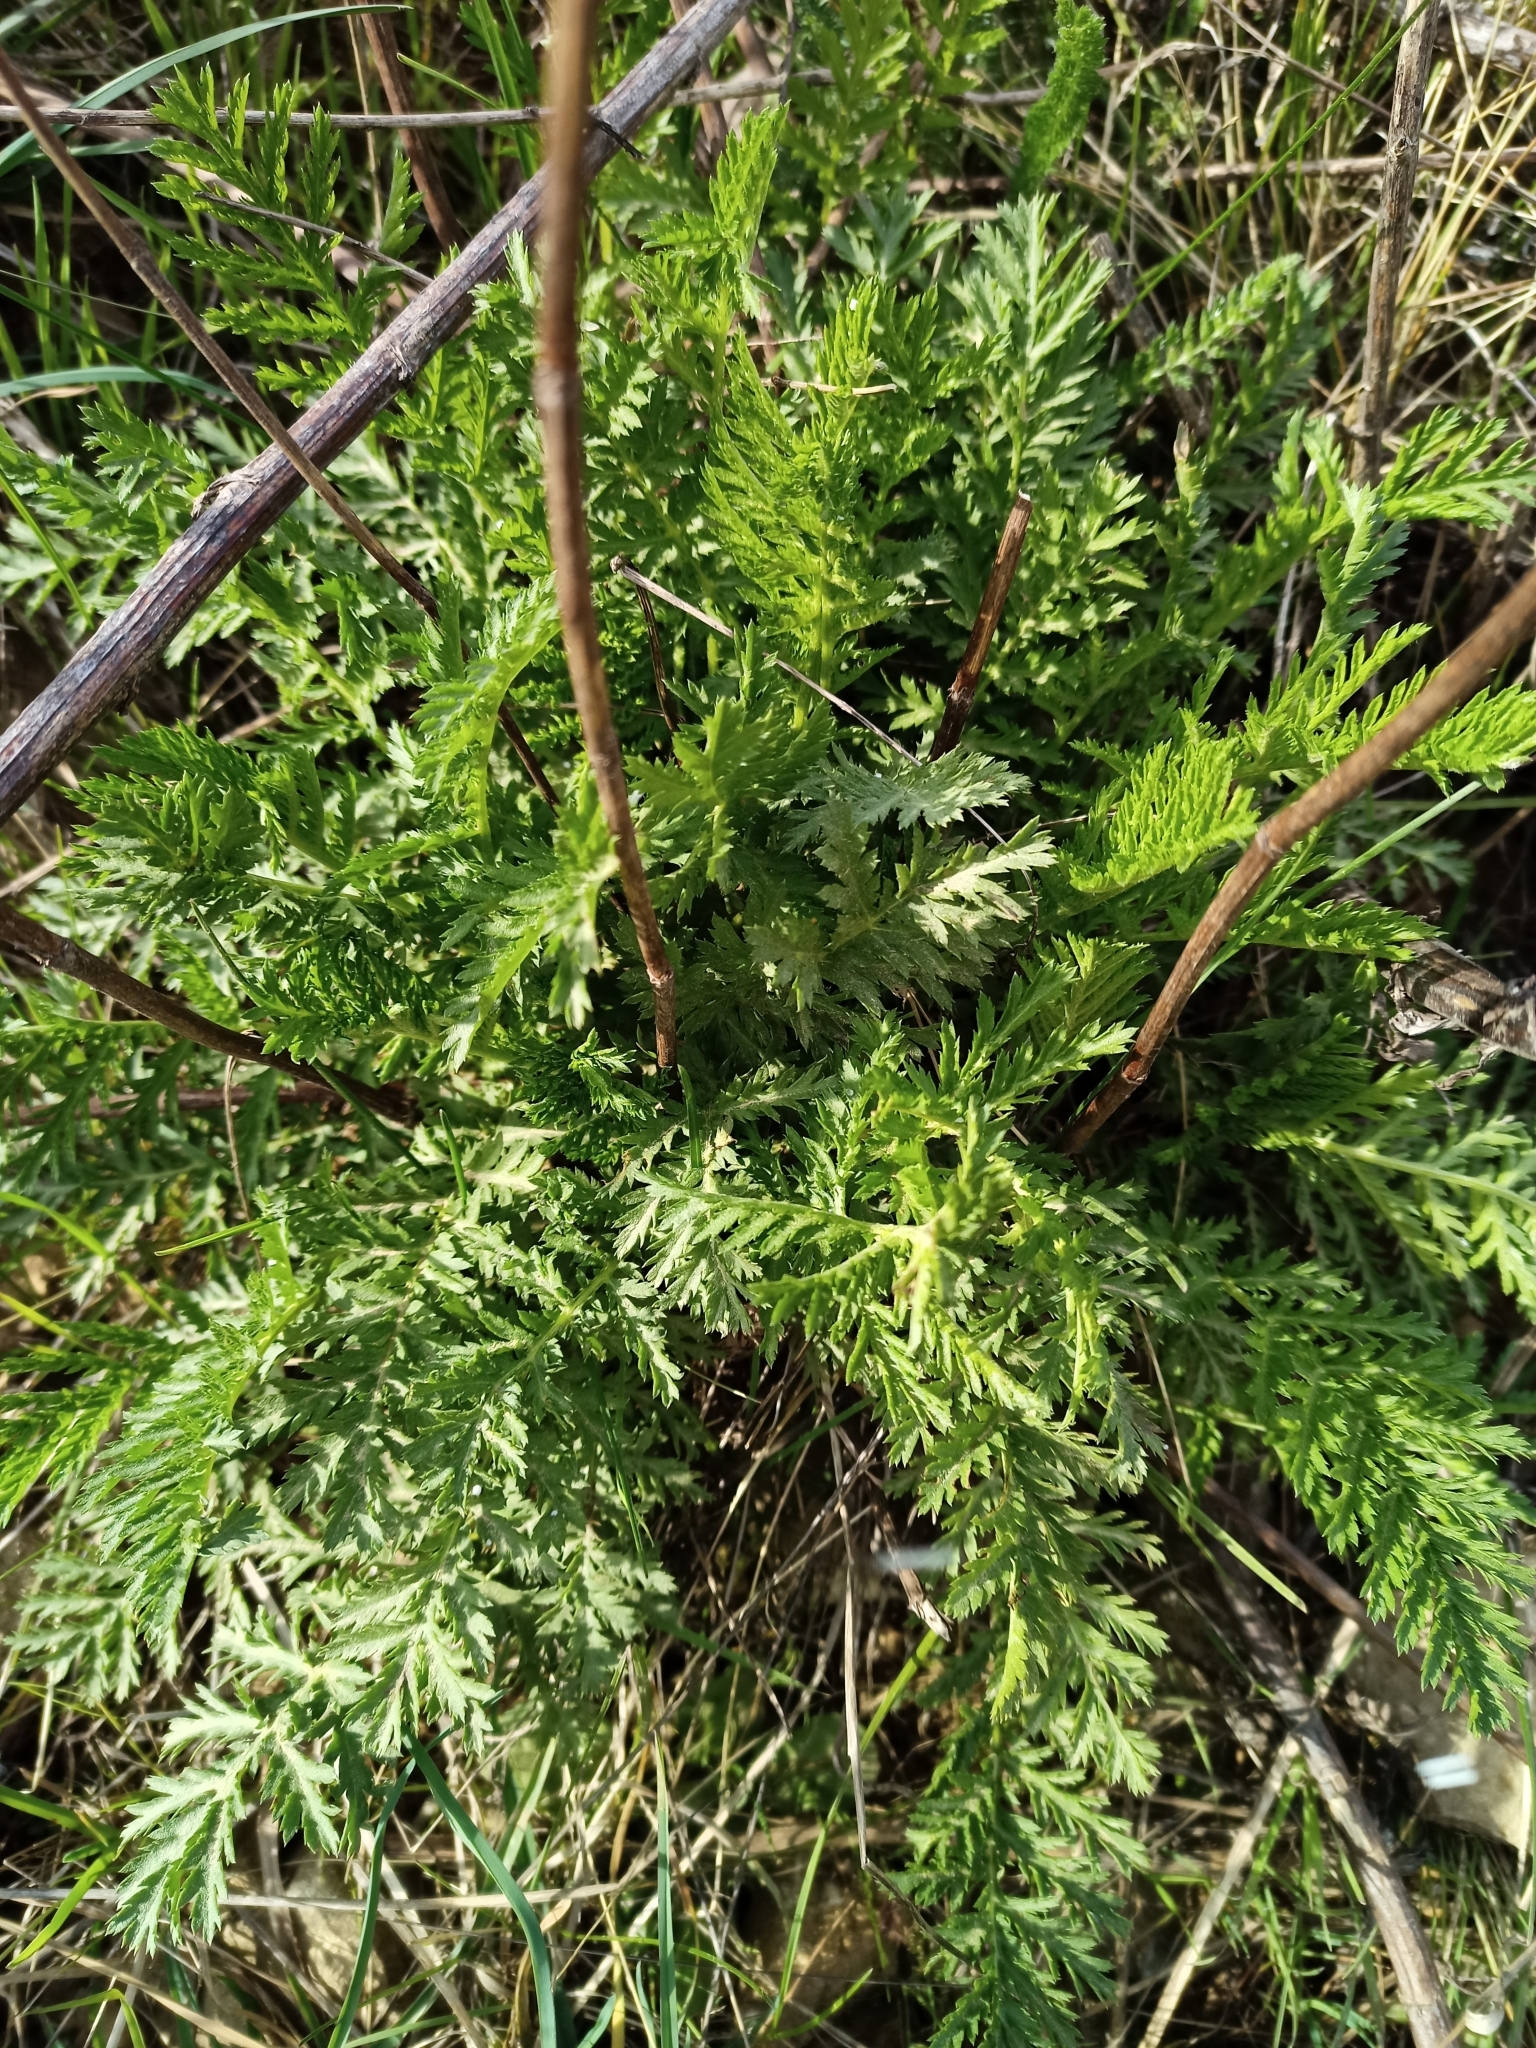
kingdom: Plantae
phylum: Tracheophyta
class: Magnoliopsida
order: Asterales
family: Asteraceae
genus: Tanacetum
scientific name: Tanacetum vulgare
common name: Common tansy
